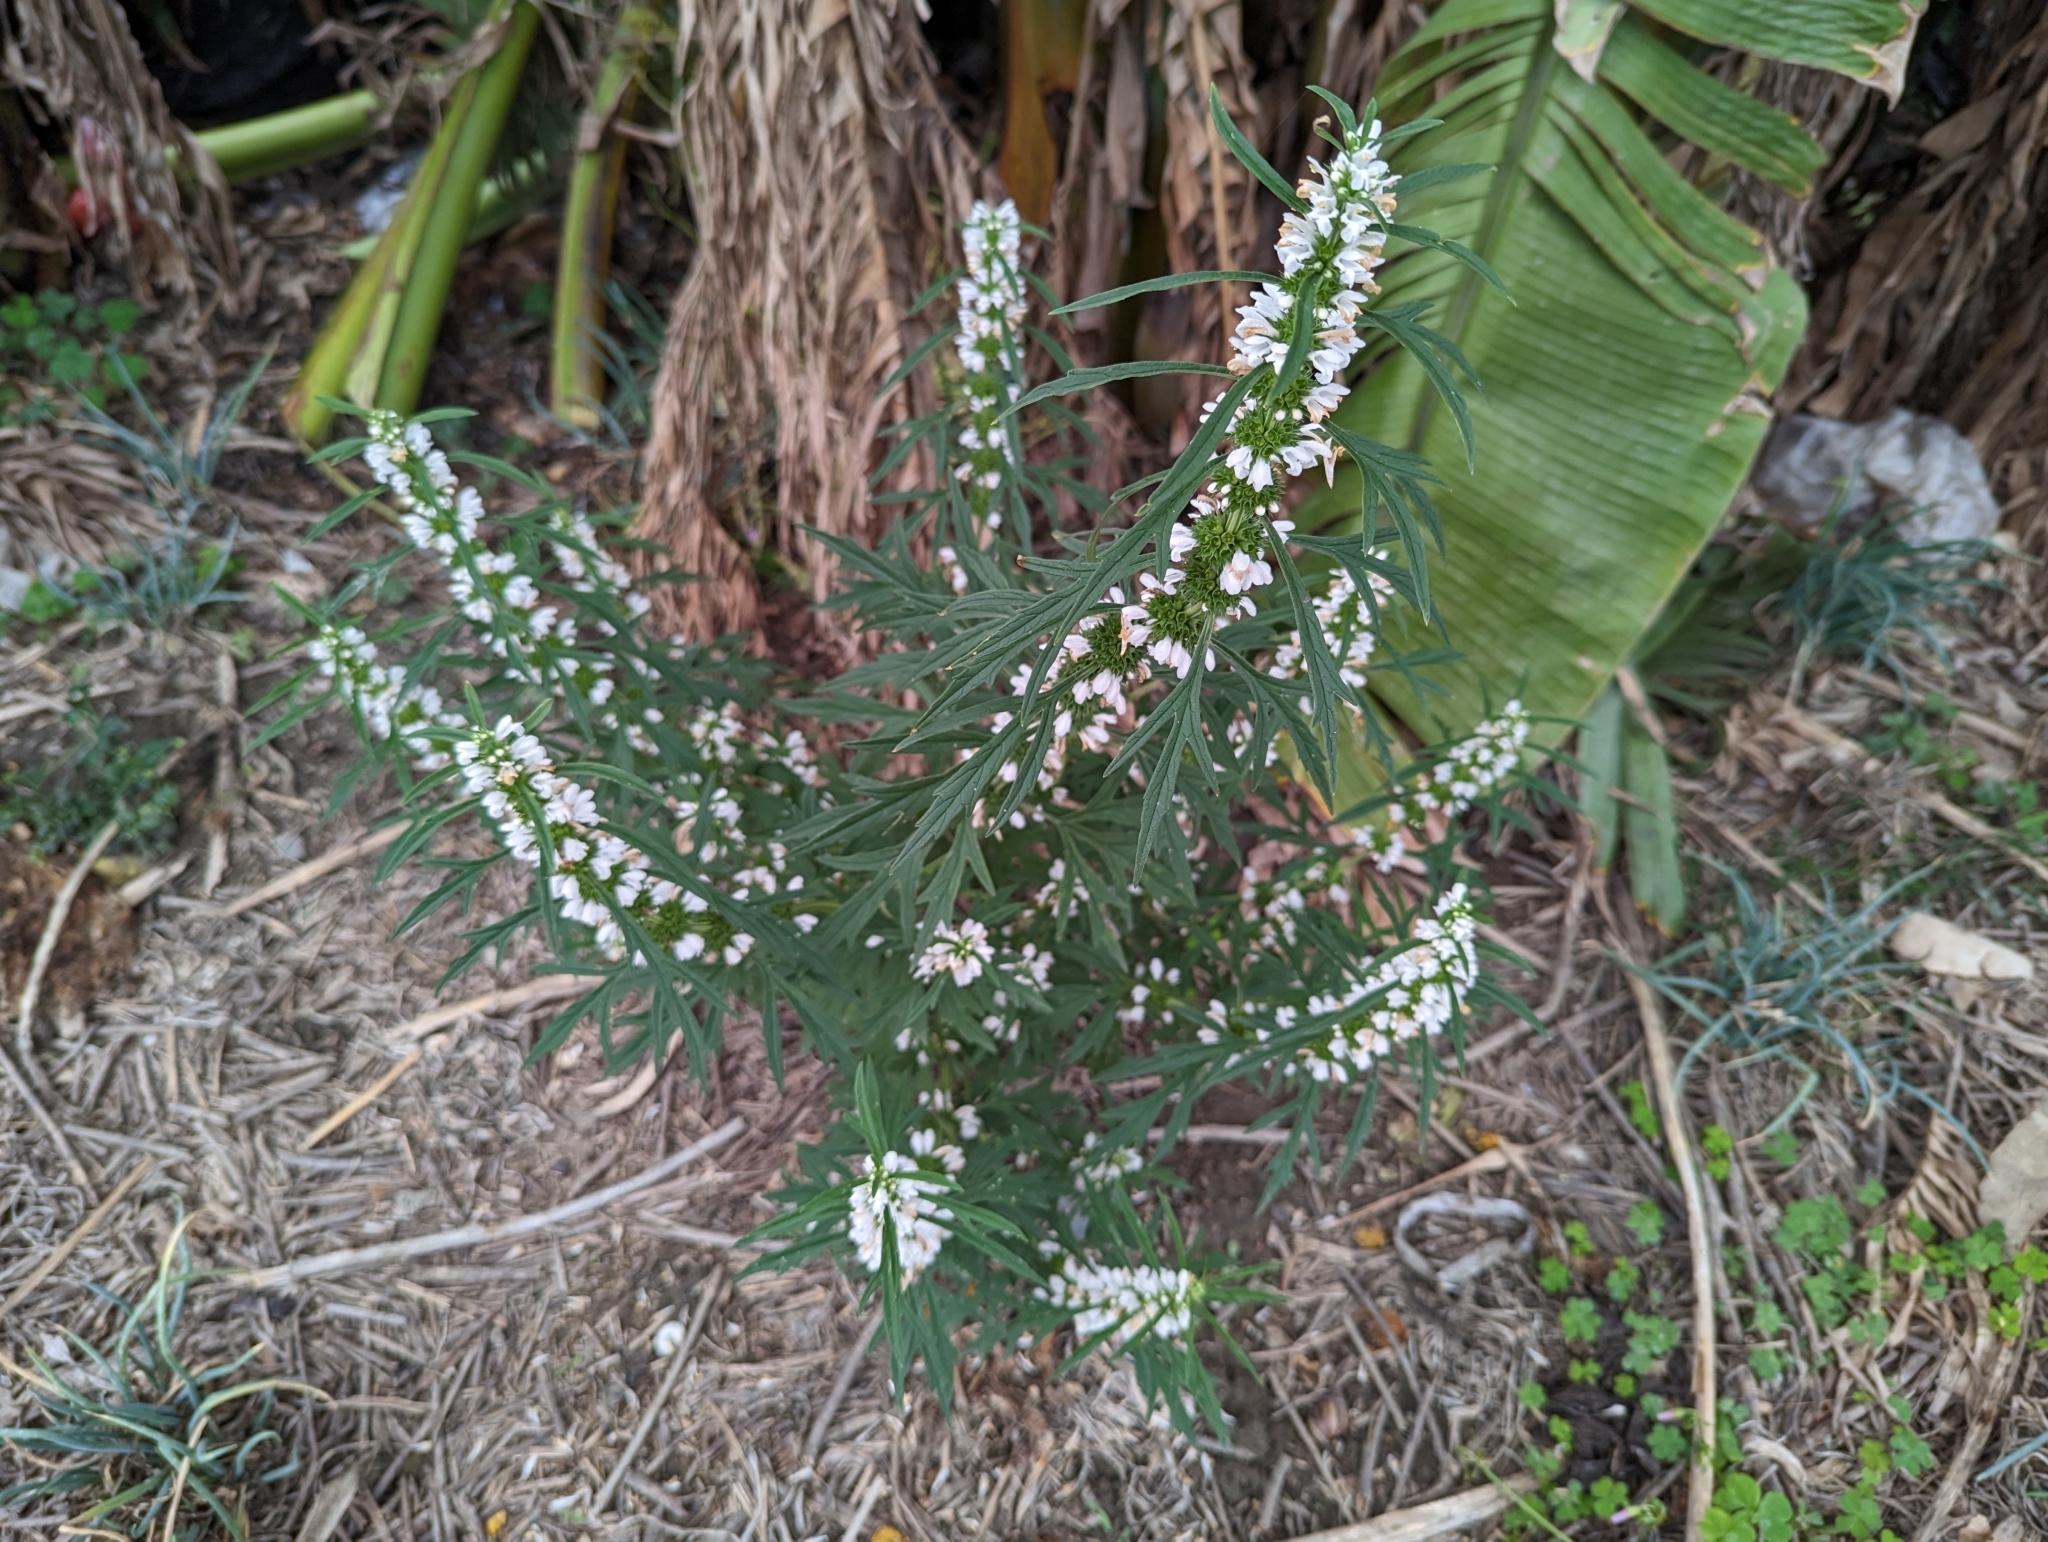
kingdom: Plantae
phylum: Tracheophyta
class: Magnoliopsida
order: Lamiales
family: Lamiaceae
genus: Leonurus
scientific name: Leonurus japonicus
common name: Honeyweed
